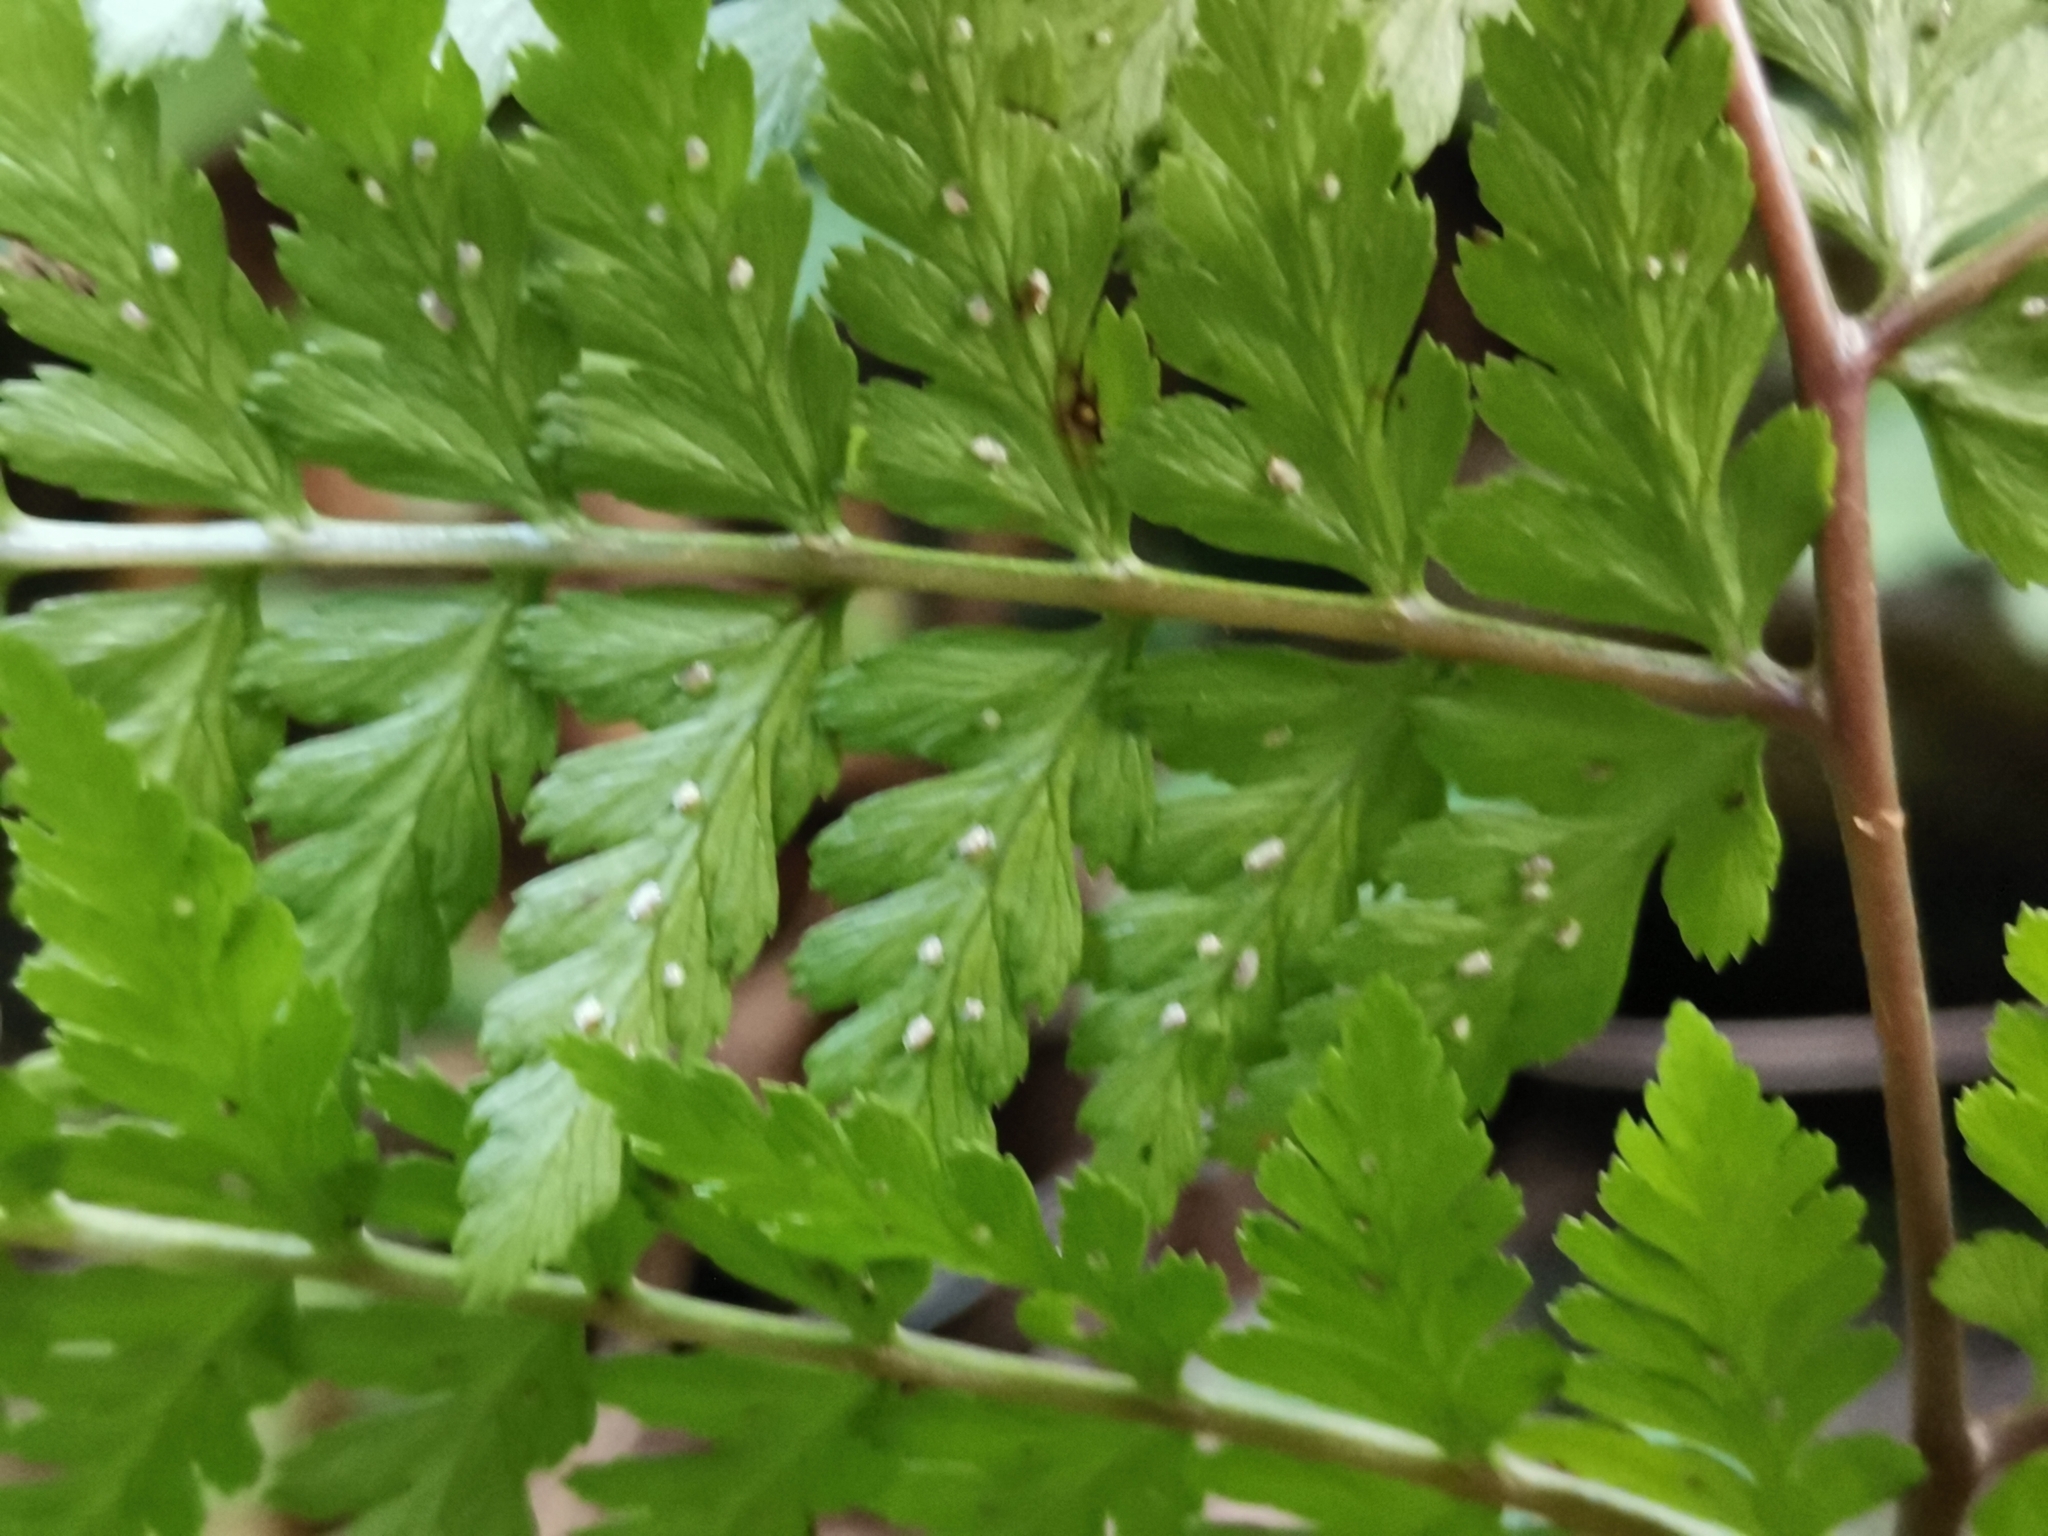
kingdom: Plantae
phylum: Tracheophyta
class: Polypodiopsida
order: Polypodiales
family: Athyriaceae
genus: Athyrium
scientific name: Athyrium vidalii
